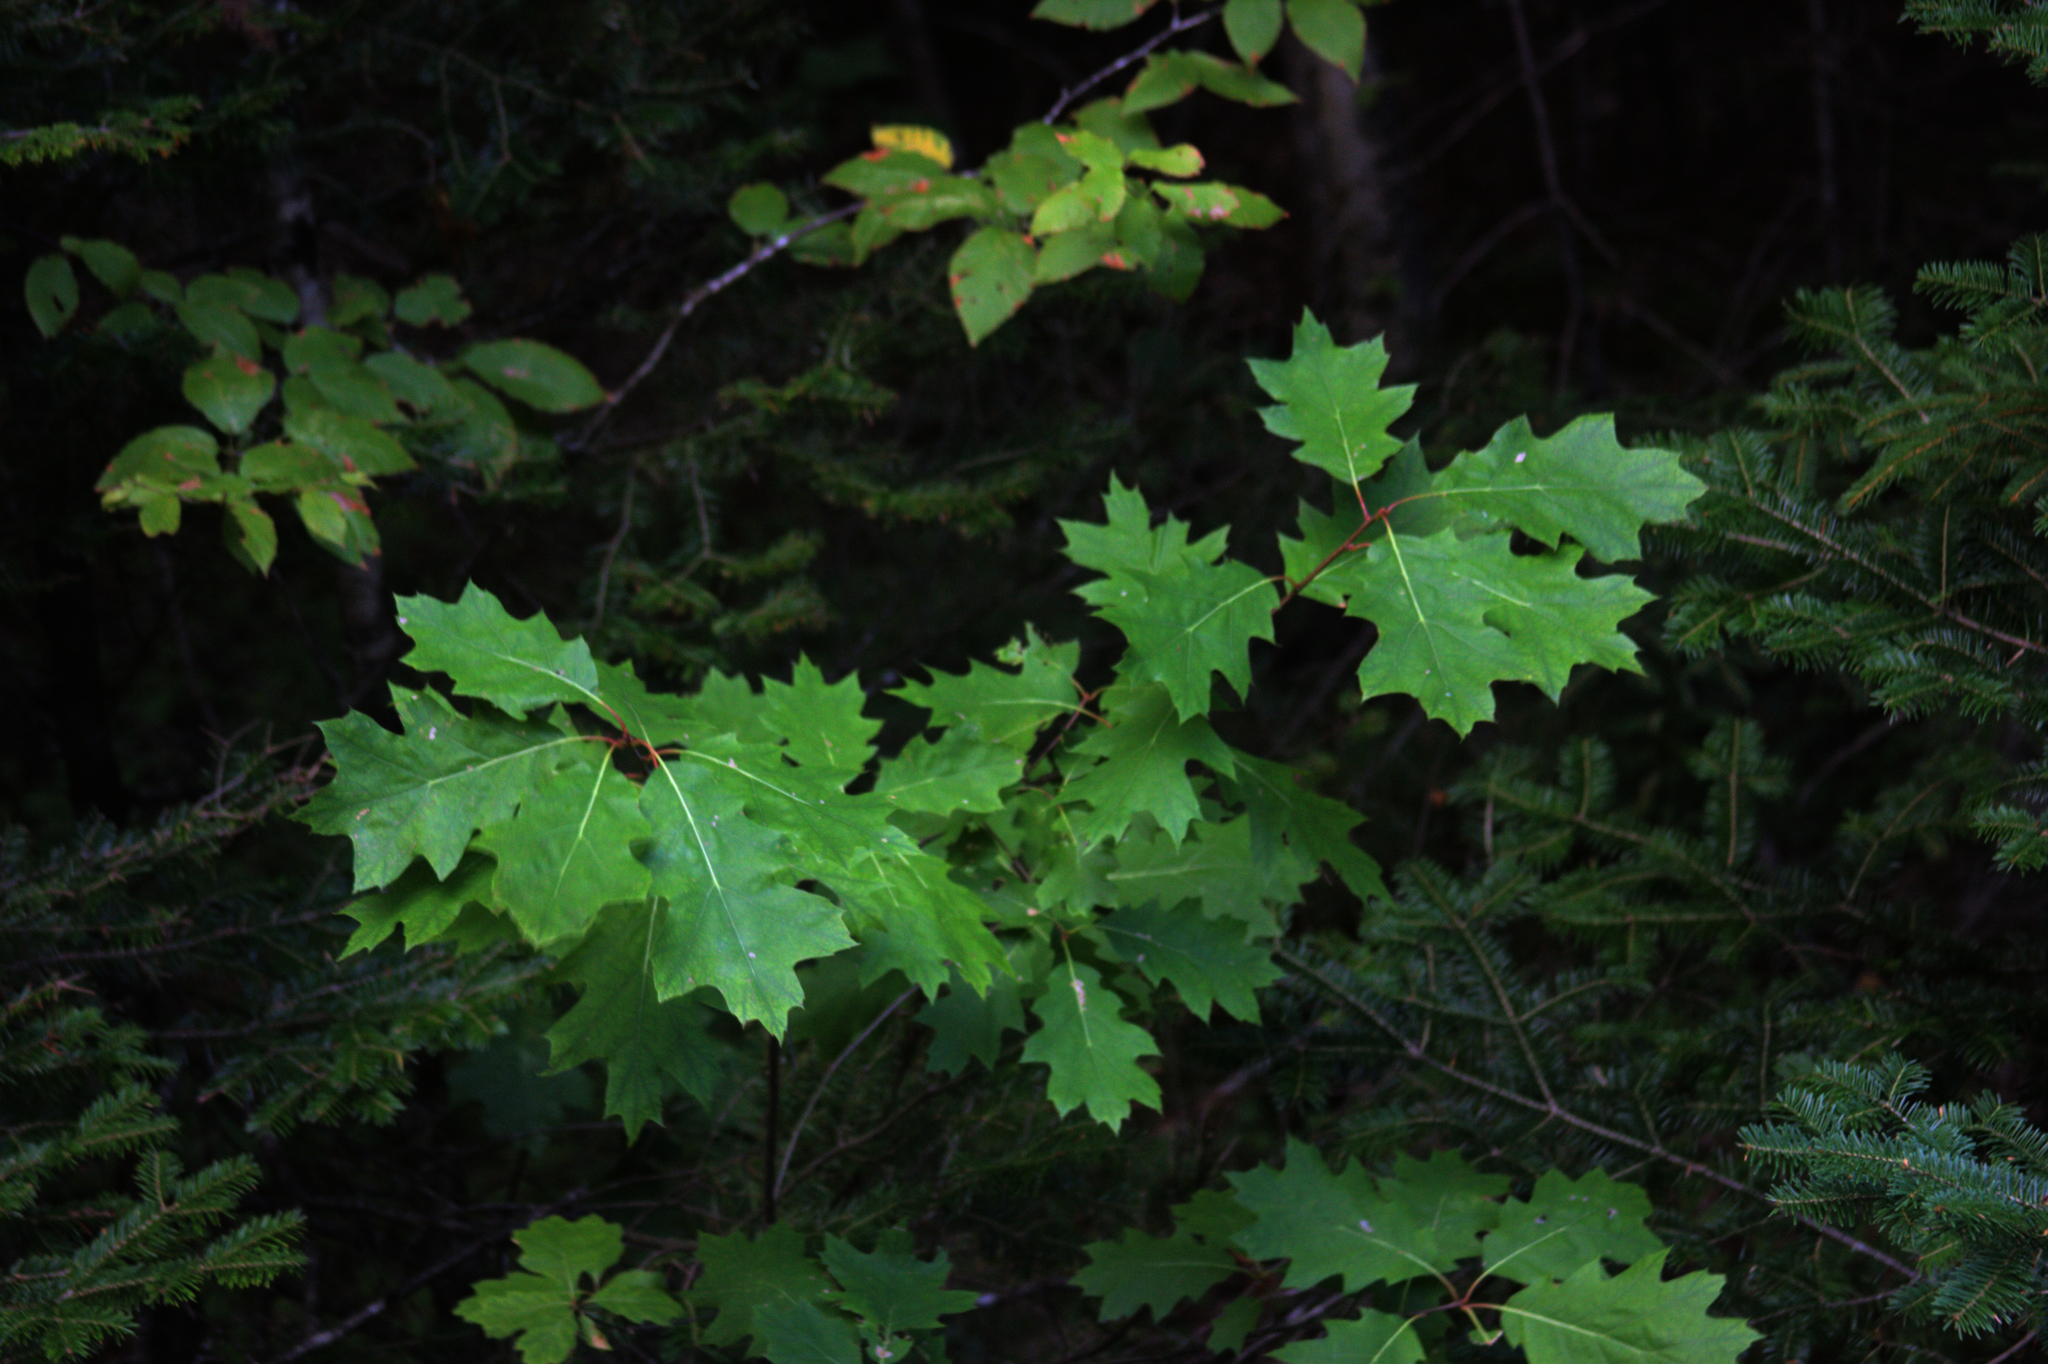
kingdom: Plantae
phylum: Tracheophyta
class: Magnoliopsida
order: Fagales
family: Fagaceae
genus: Quercus
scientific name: Quercus rubra
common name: Red oak
